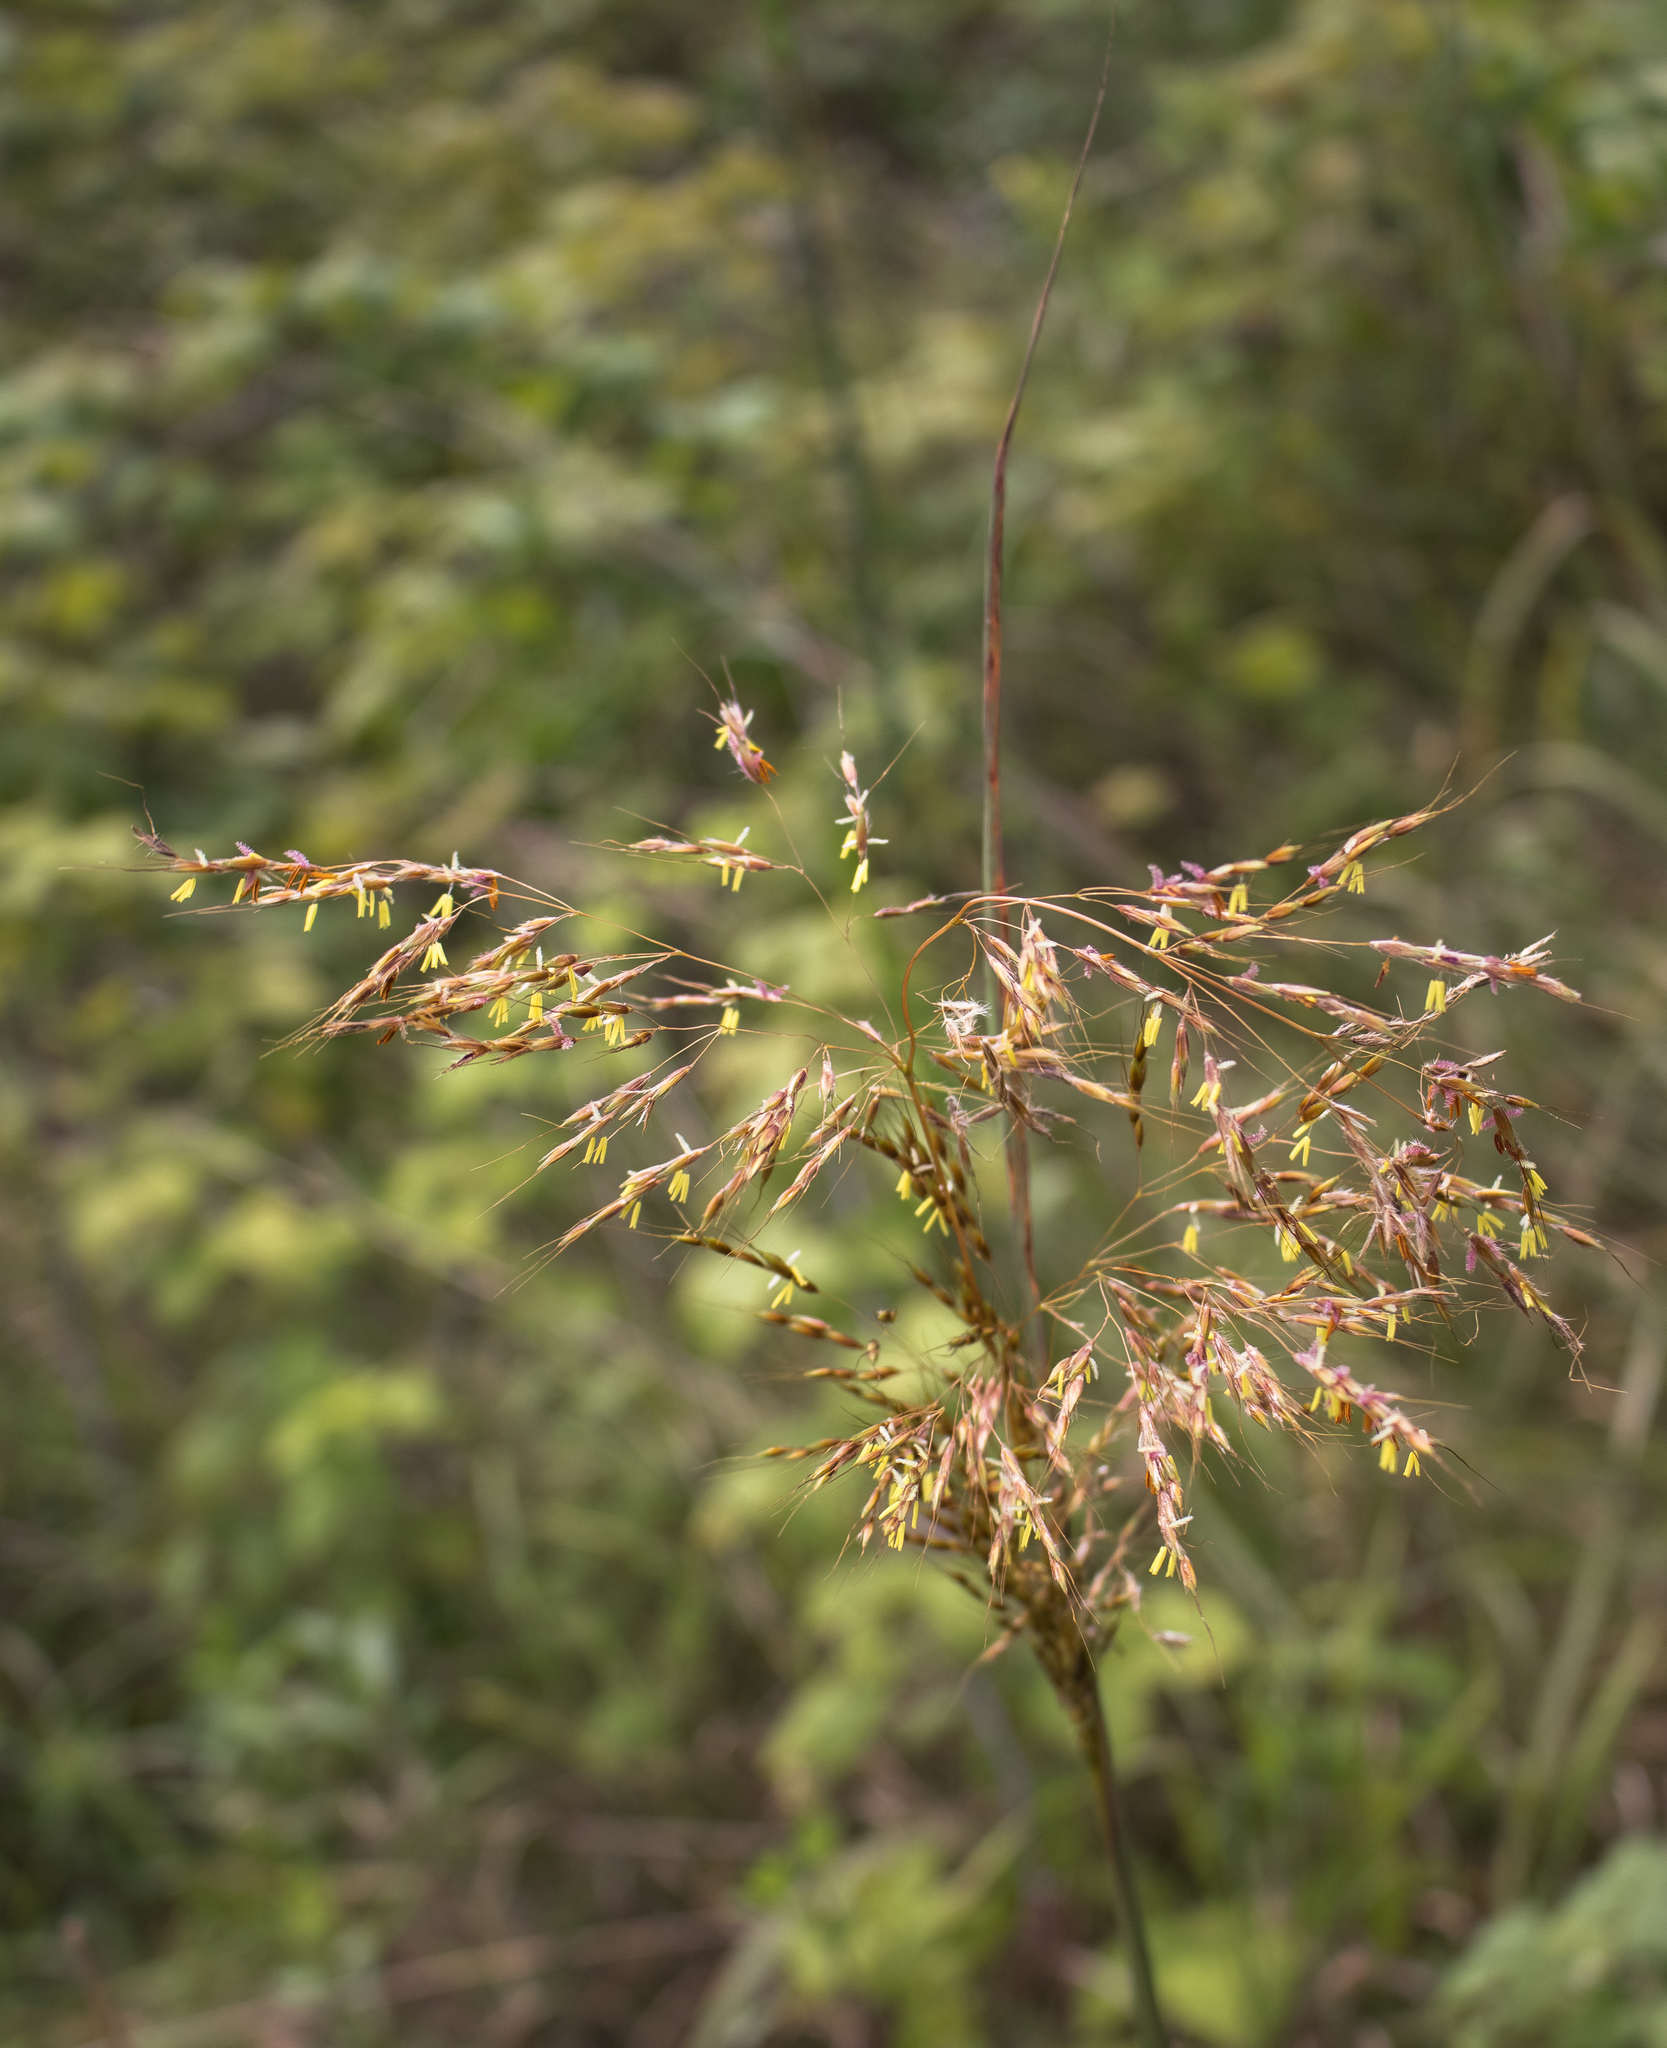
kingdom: Plantae
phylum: Tracheophyta
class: Liliopsida
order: Poales
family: Poaceae
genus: Sorghastrum
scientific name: Sorghastrum nutans
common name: Indian grass
